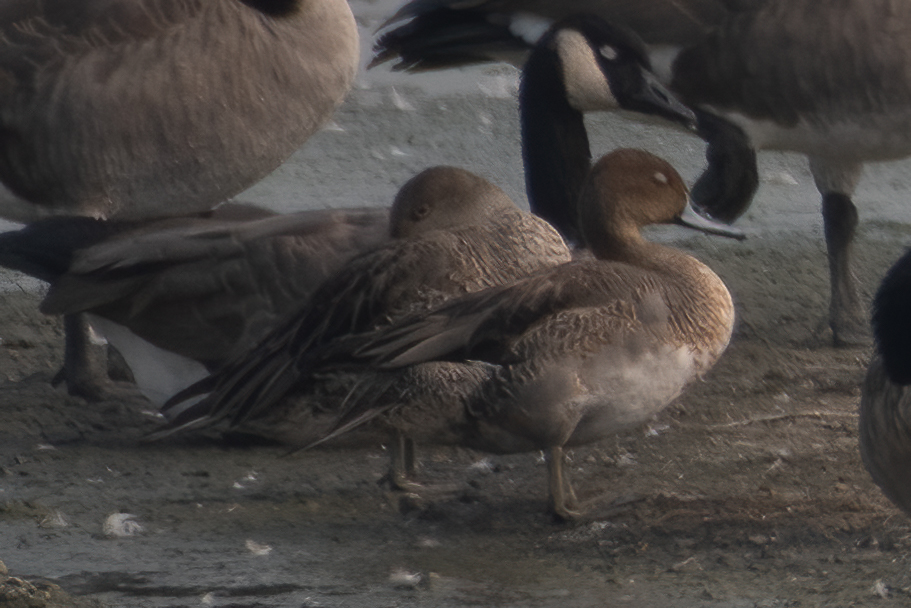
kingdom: Animalia
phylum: Chordata
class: Aves
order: Anseriformes
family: Anatidae
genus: Anas
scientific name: Anas acuta
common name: Northern pintail
